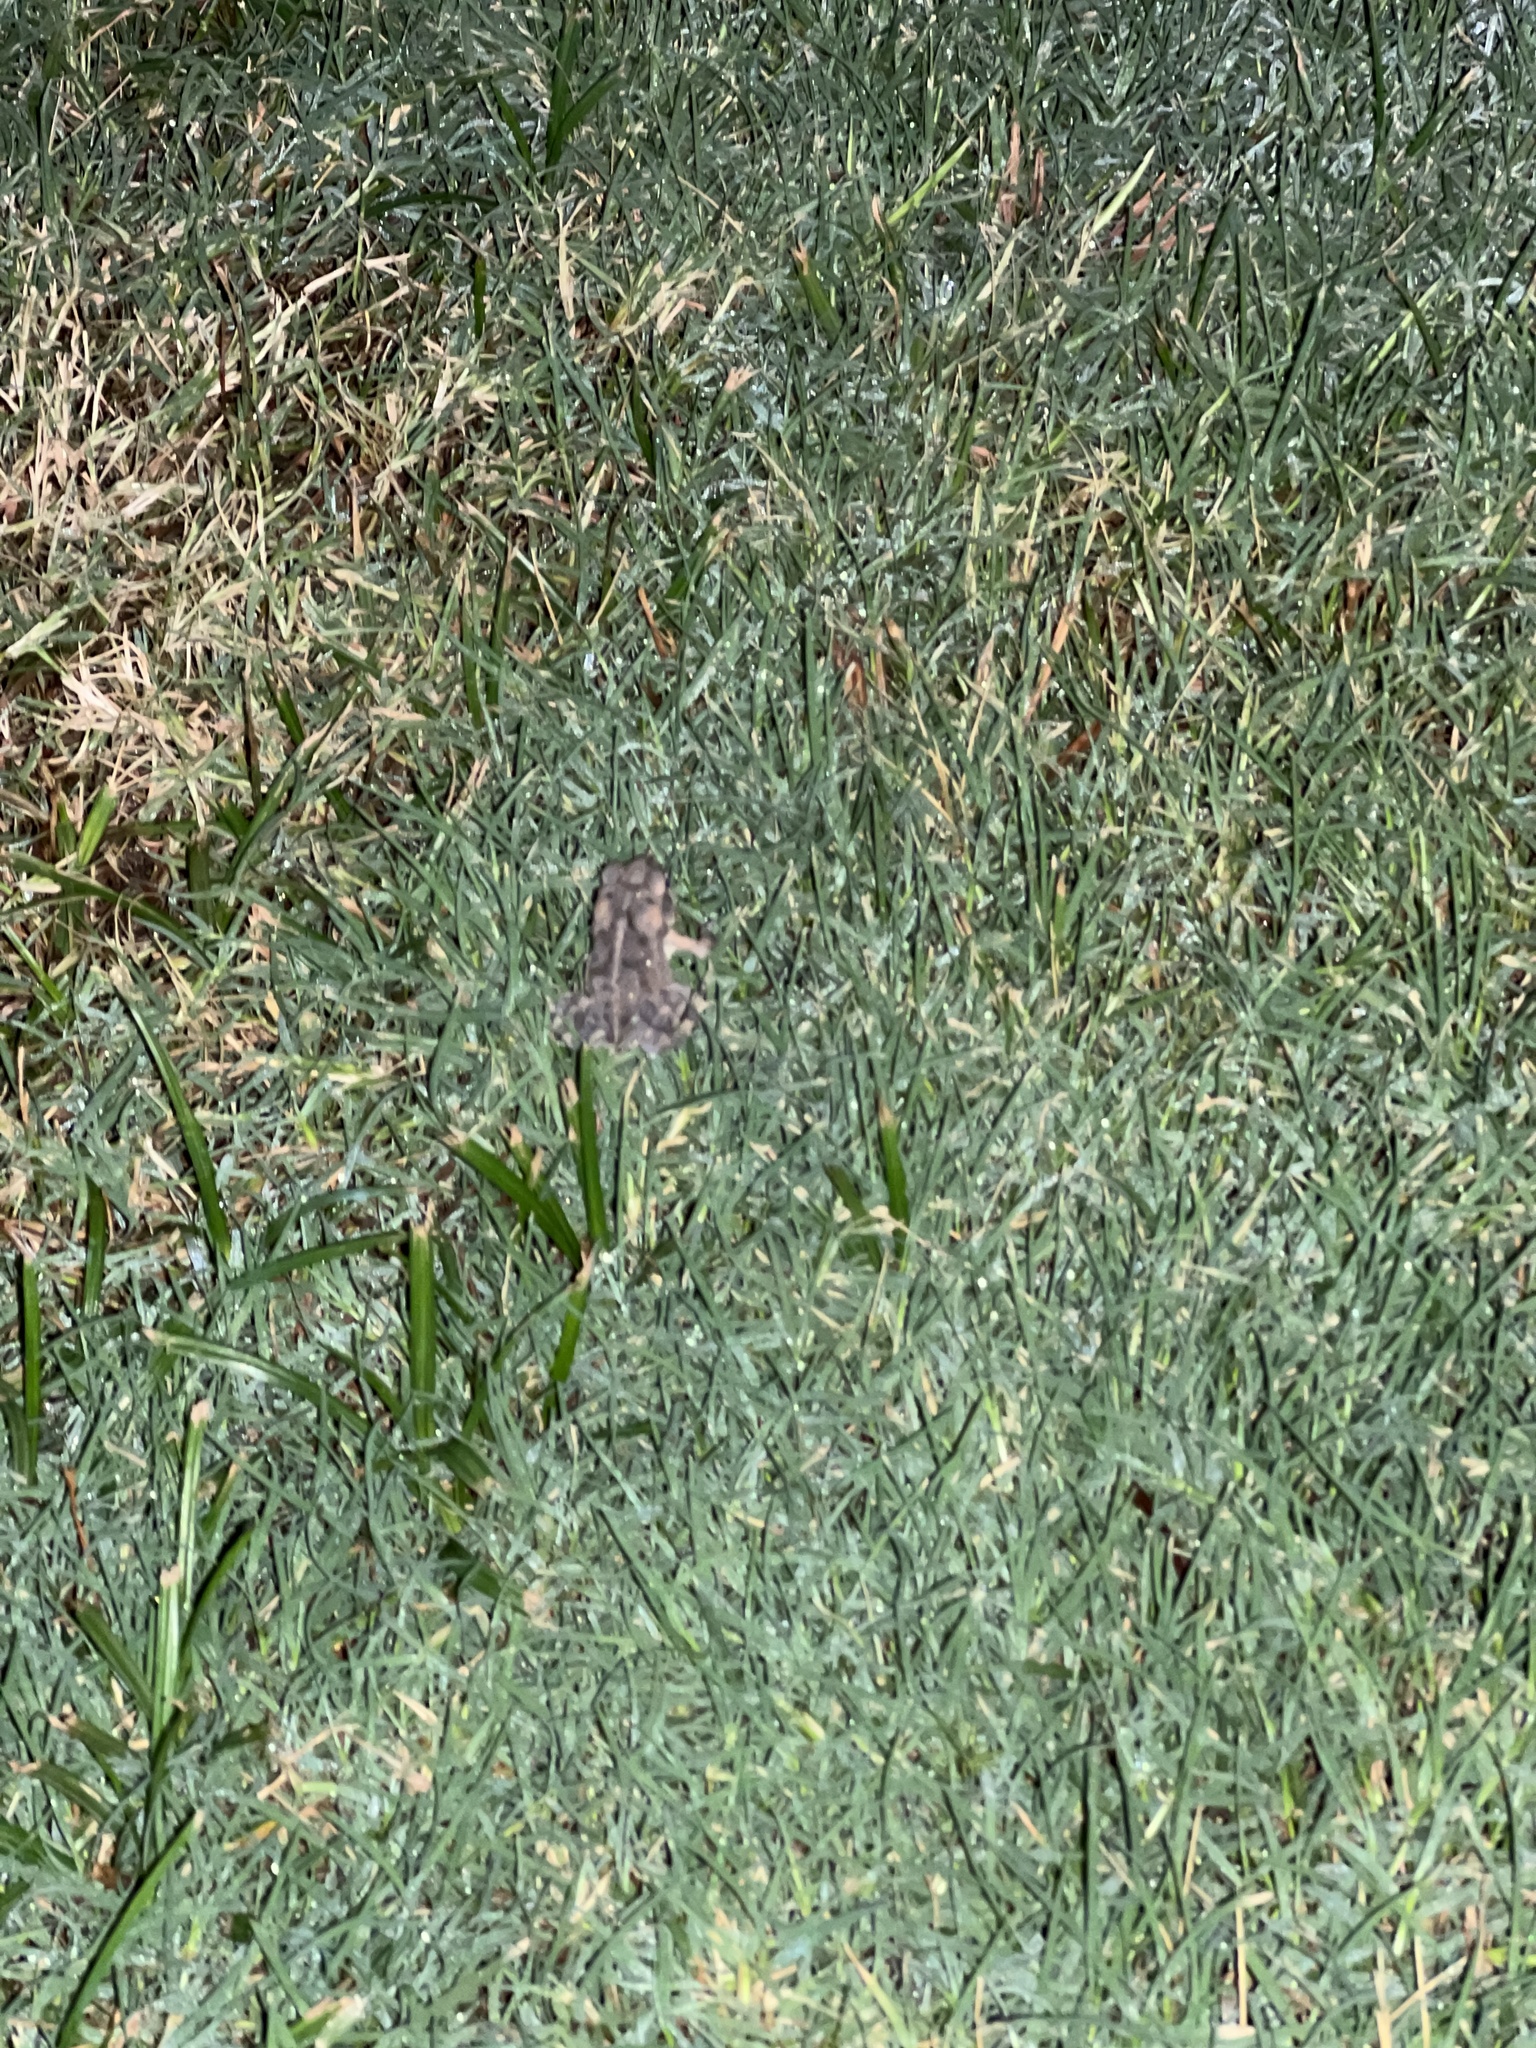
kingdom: Animalia
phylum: Chordata
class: Amphibia
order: Anura
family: Bufonidae
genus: Incilius
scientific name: Incilius nebulifer
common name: Gulf coast toad
